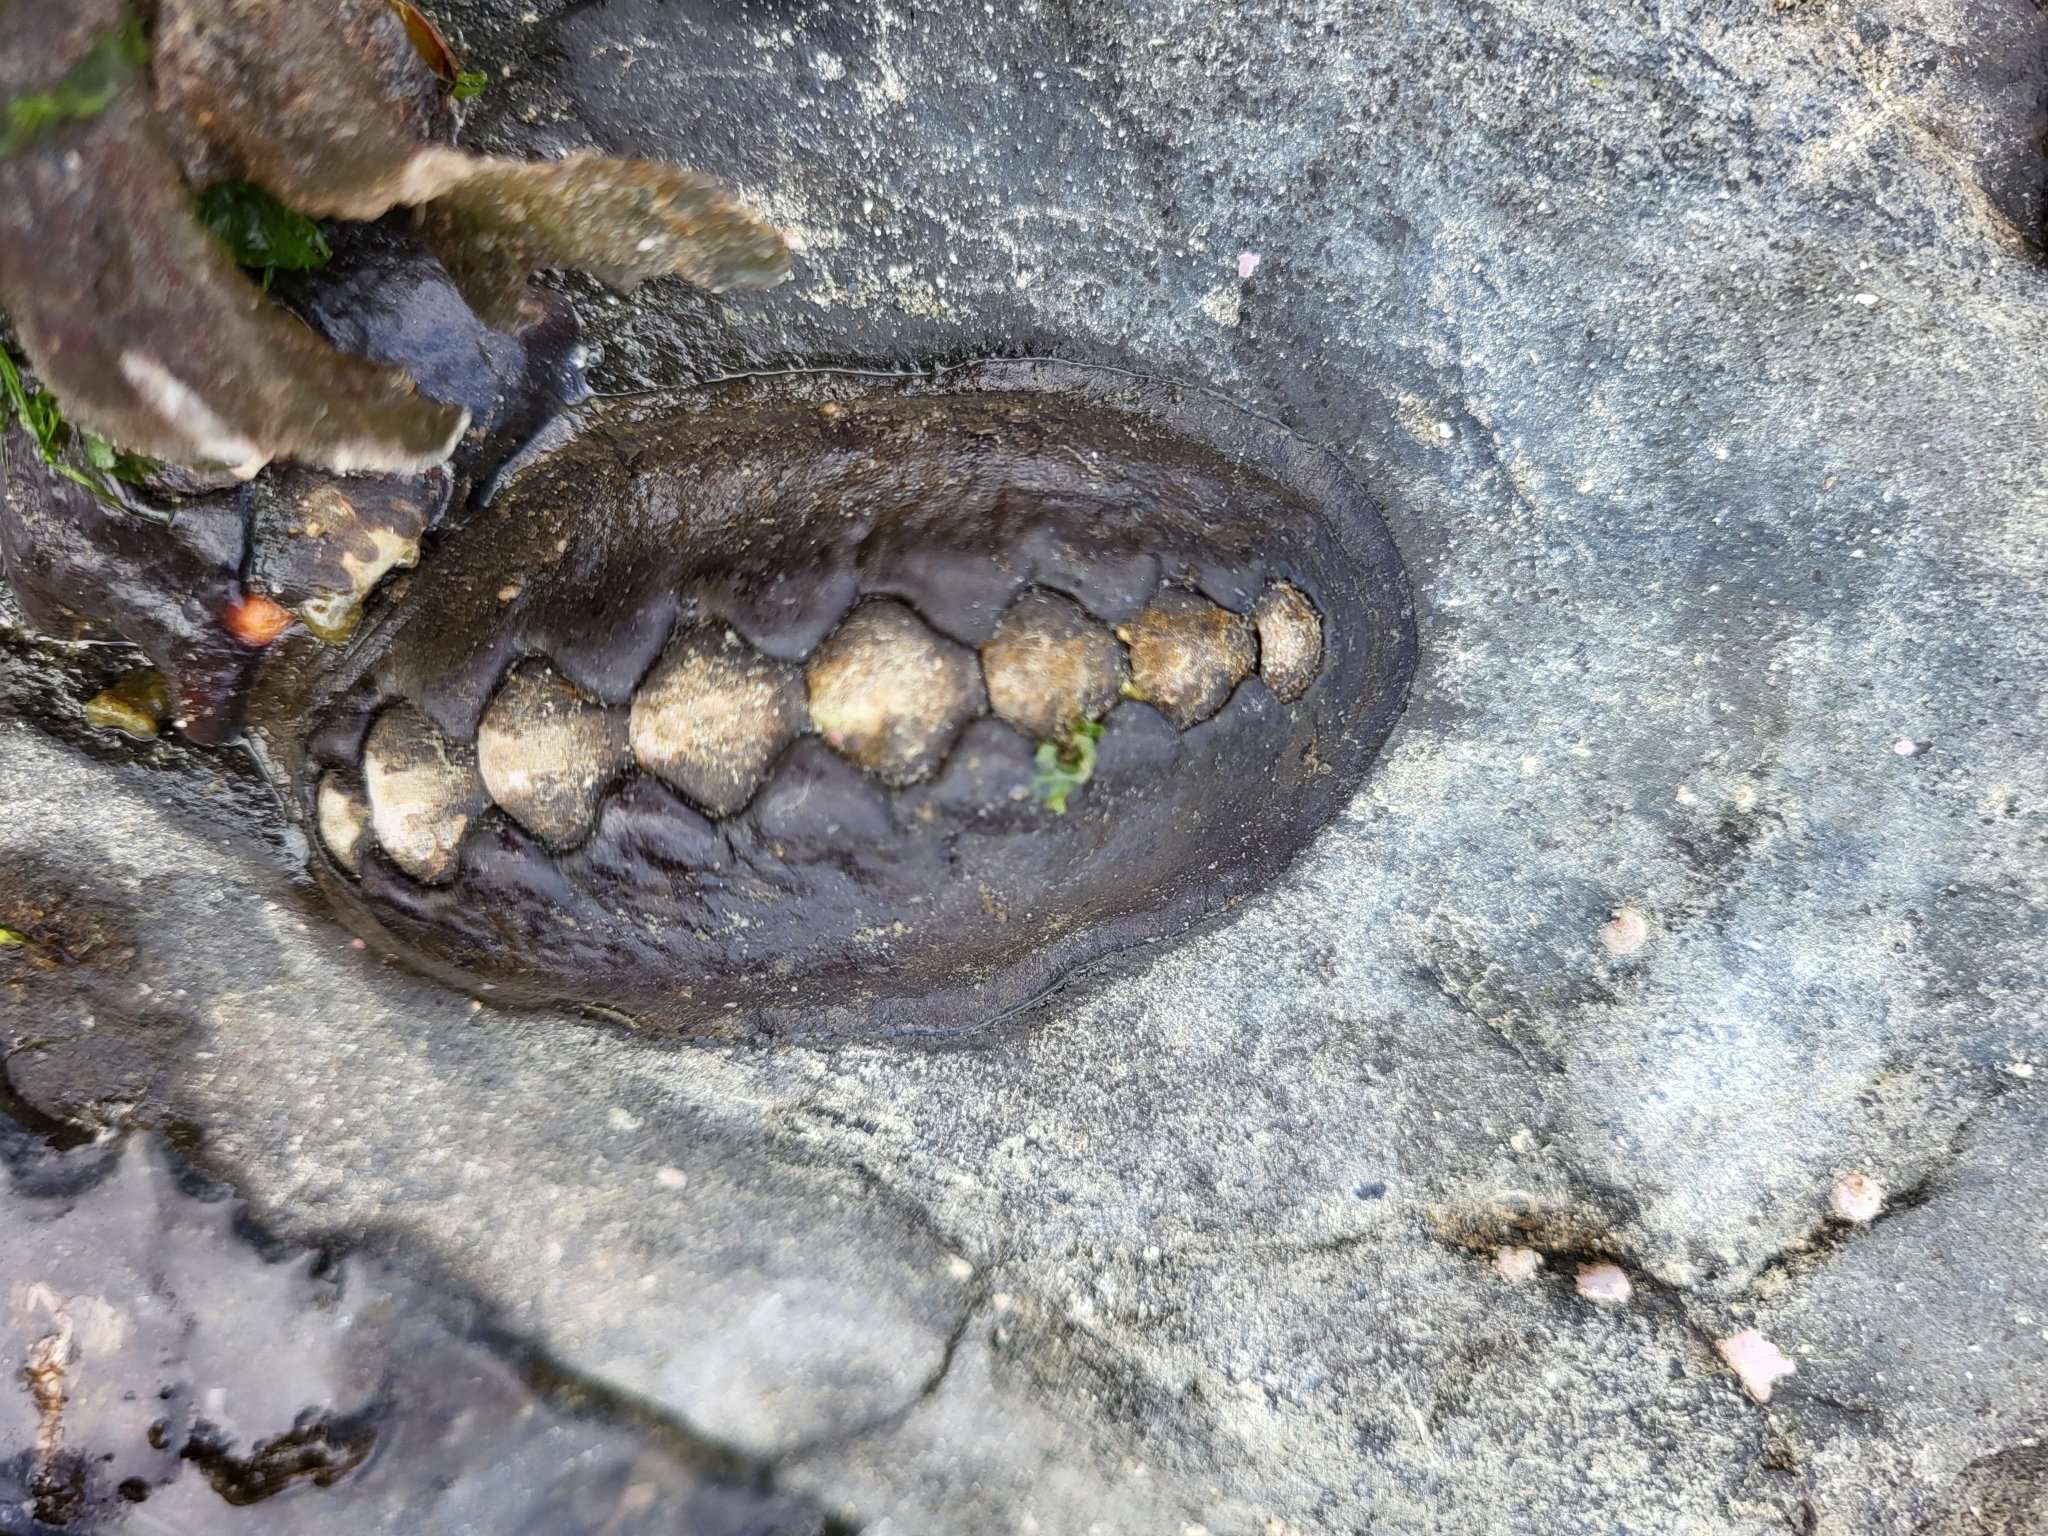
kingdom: Animalia
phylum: Mollusca
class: Polyplacophora
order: Chitonida
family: Mopaliidae
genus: Katharina
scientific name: Katharina tunicata
